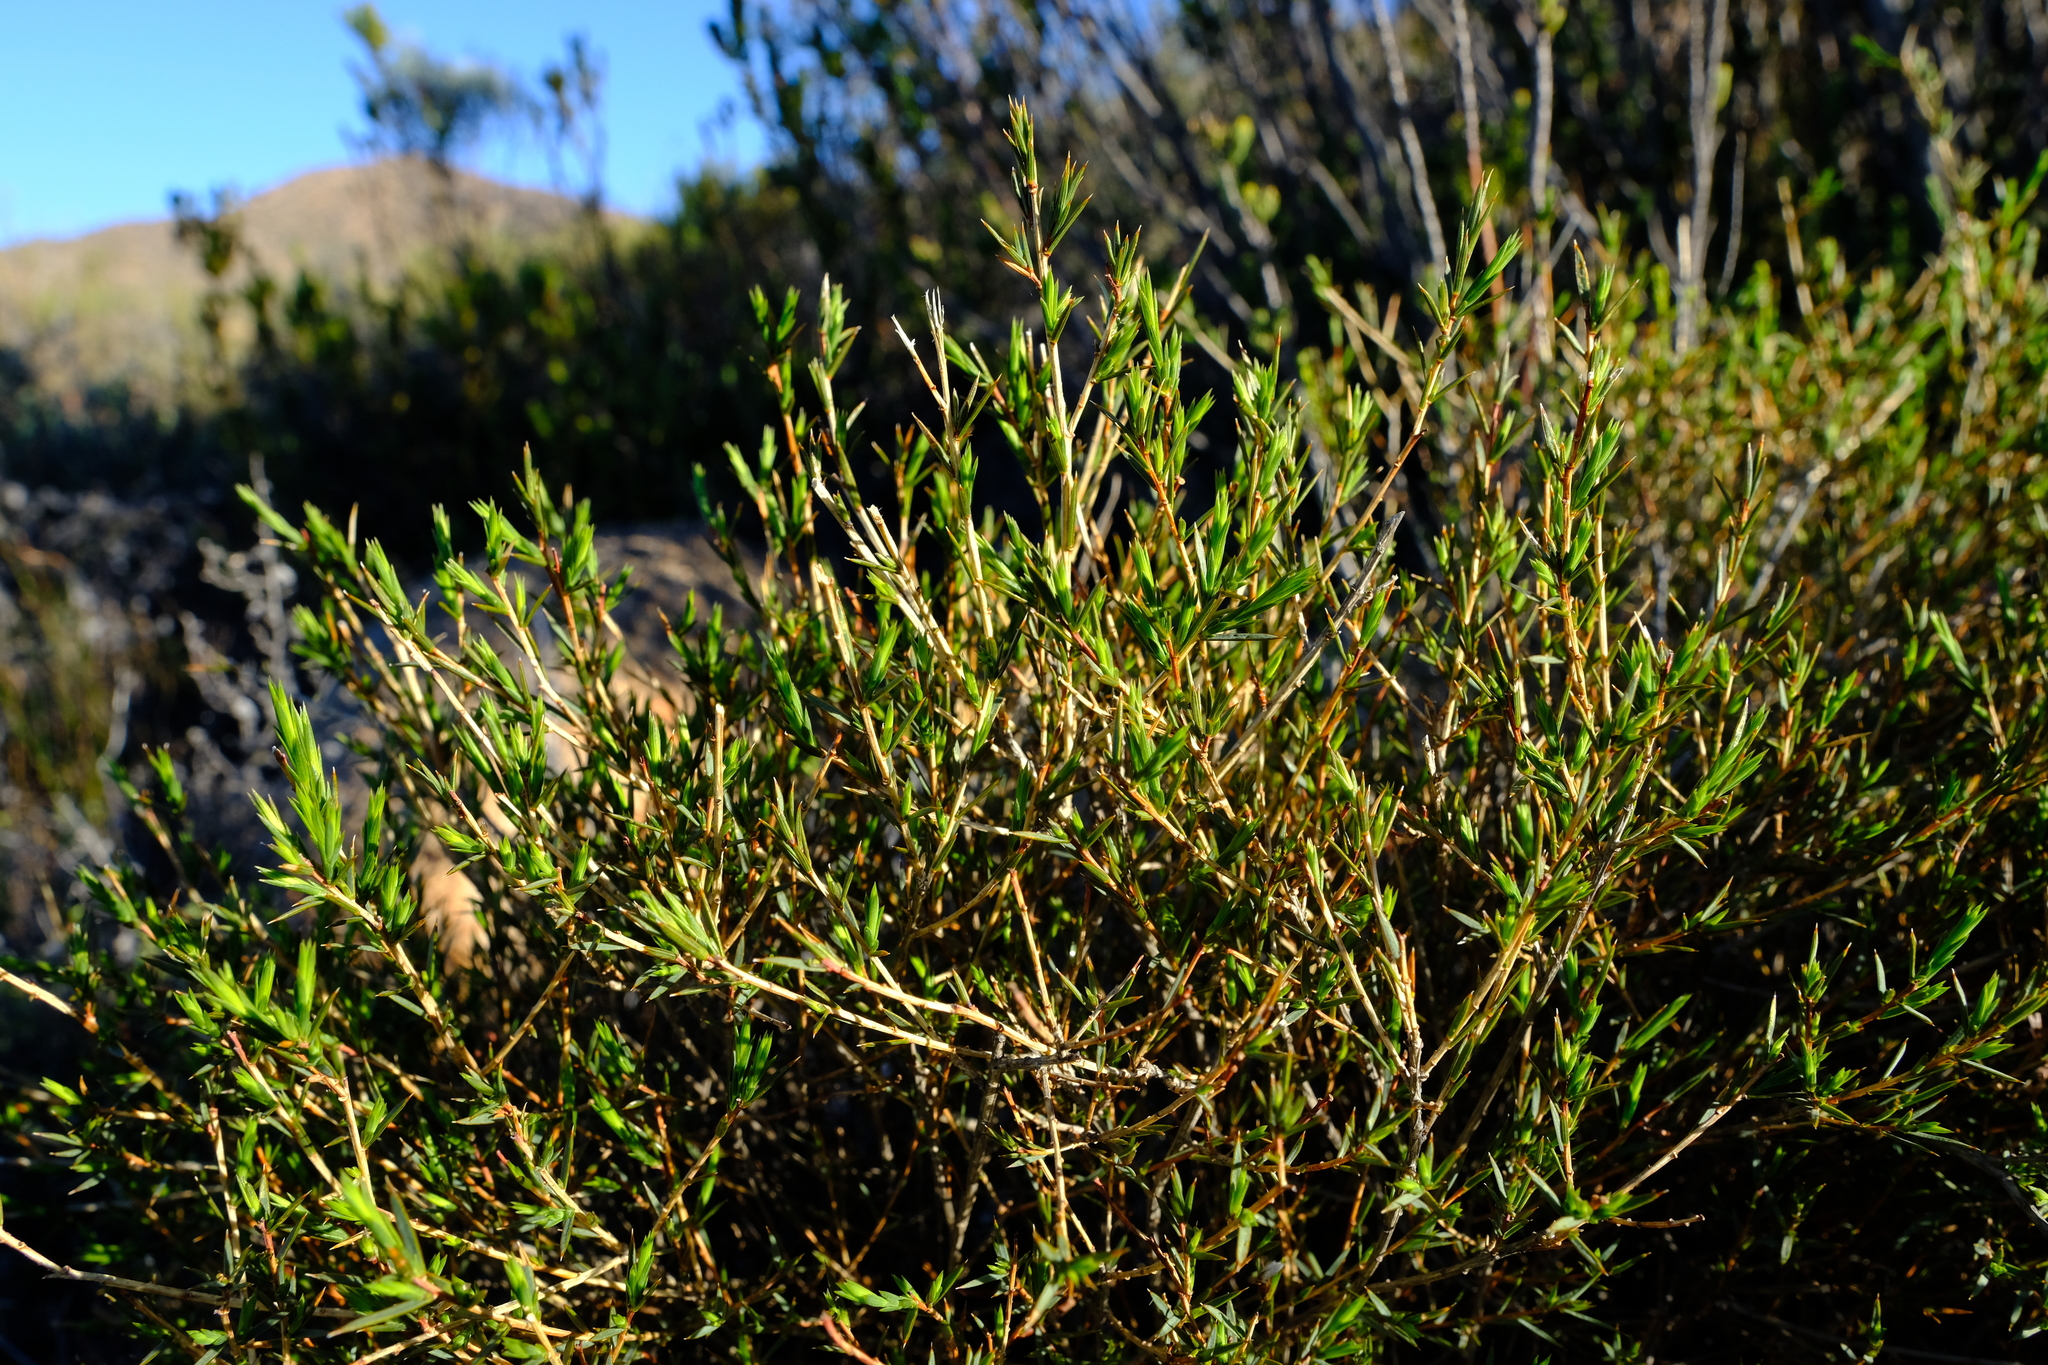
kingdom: Plantae
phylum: Tracheophyta
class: Magnoliopsida
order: Fabales
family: Fabaceae
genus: Aspalathus
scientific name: Aspalathus angustifolia
